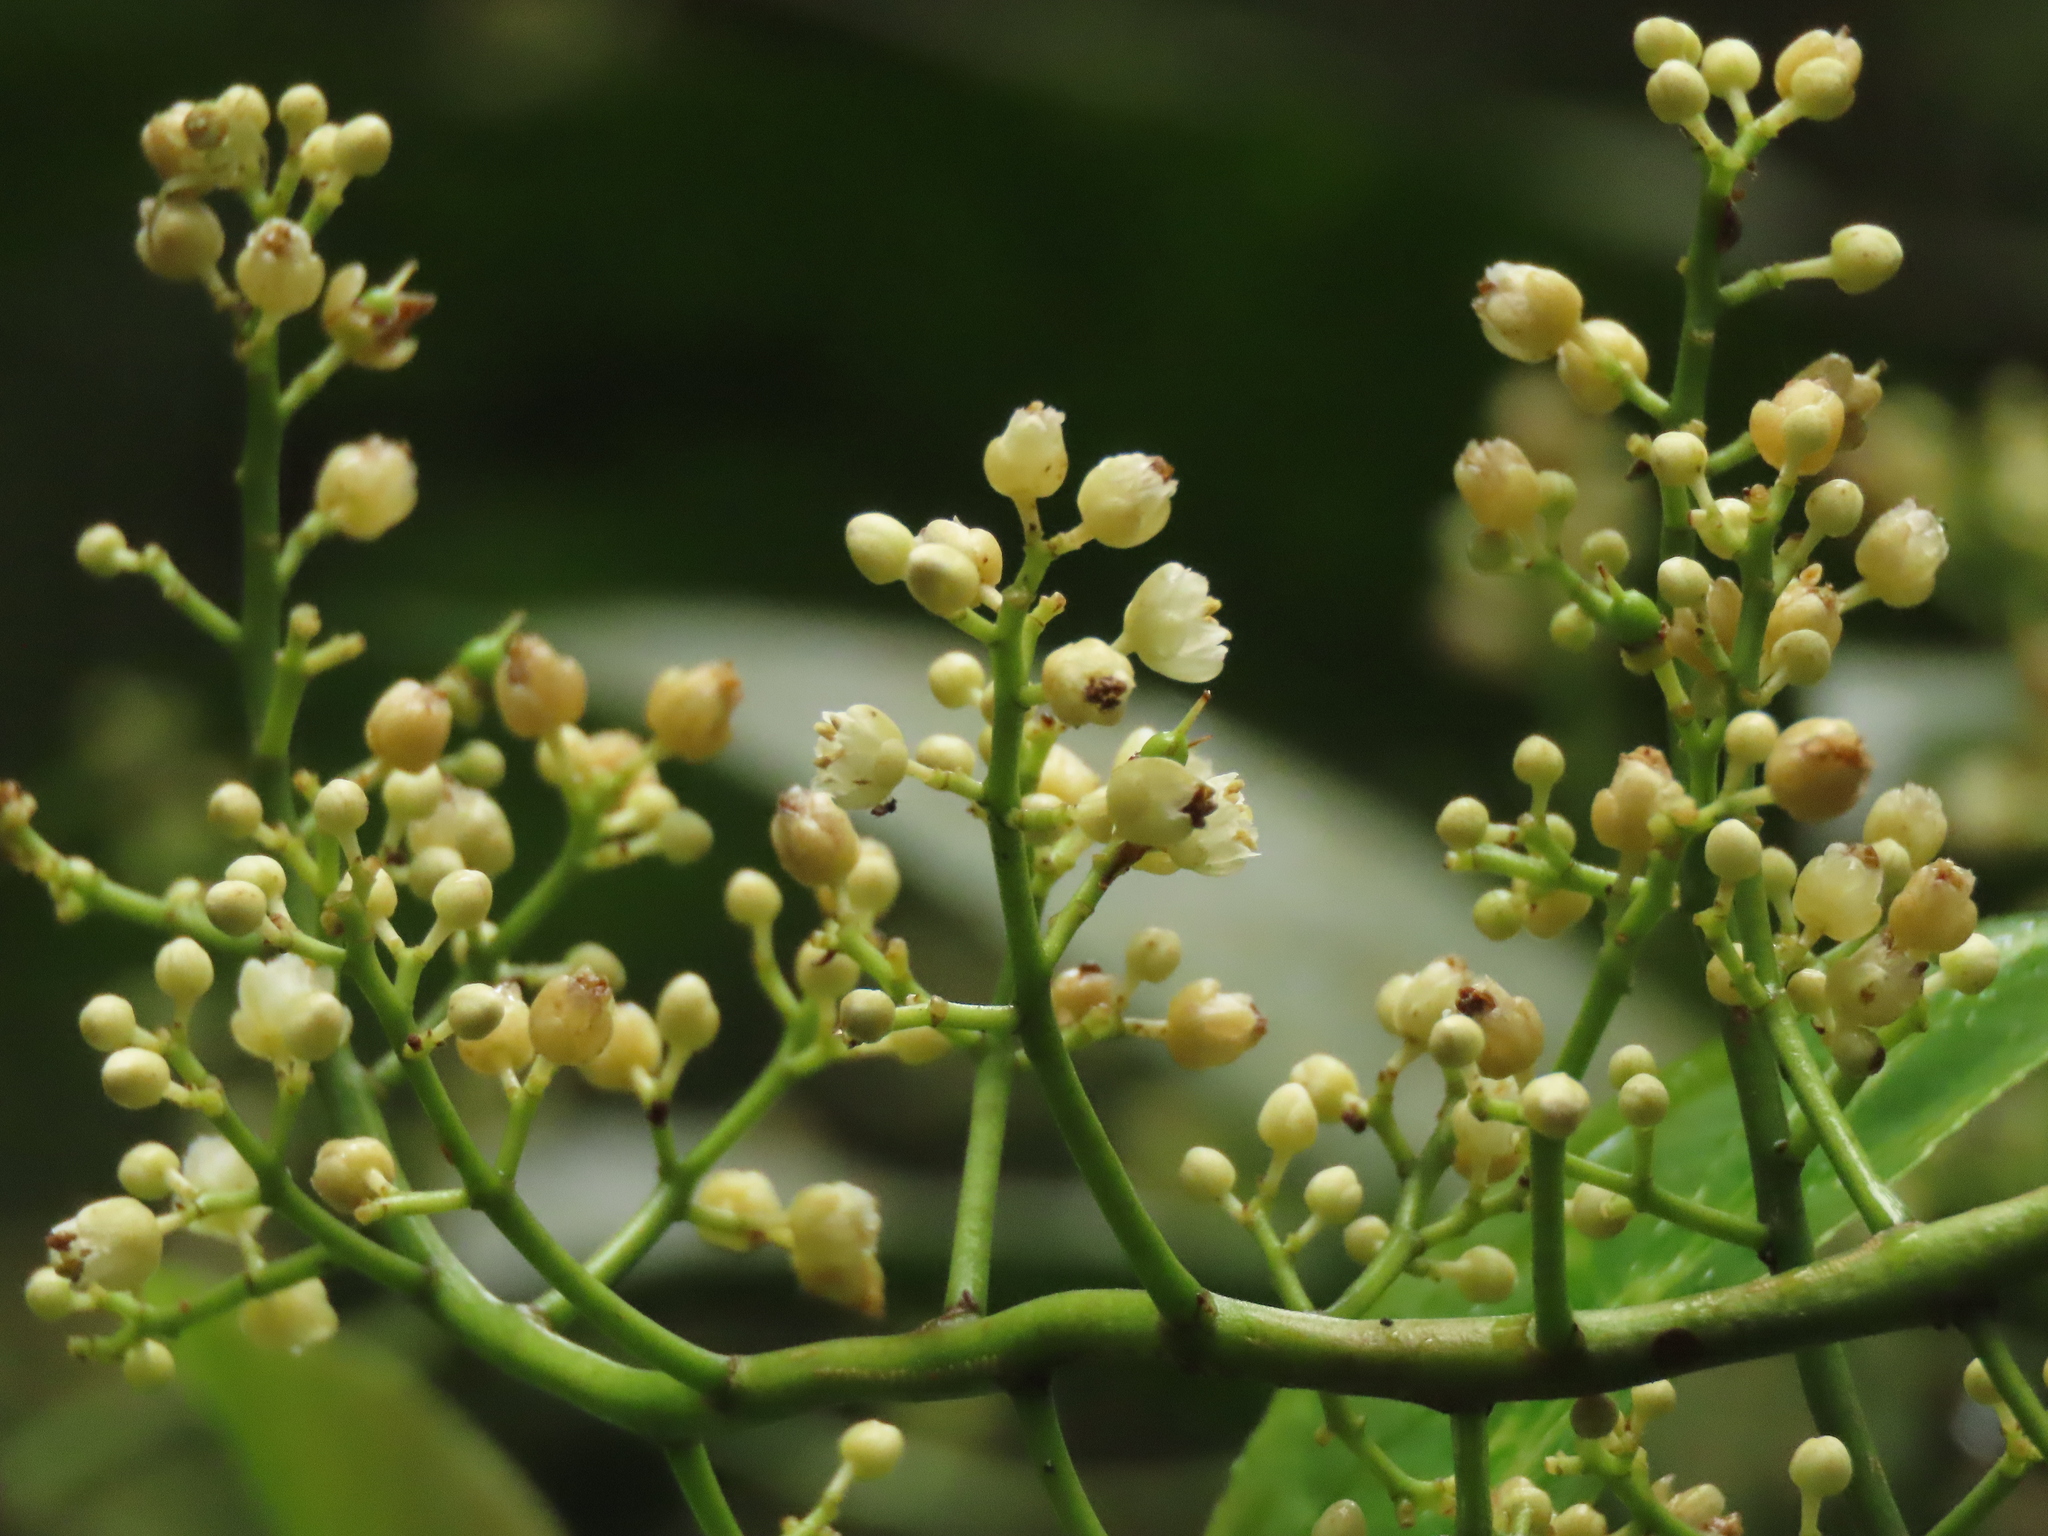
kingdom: Plantae
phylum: Tracheophyta
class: Magnoliopsida
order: Crossosomatales
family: Staphyleaceae
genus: Turpinia
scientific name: Turpinia formosana
